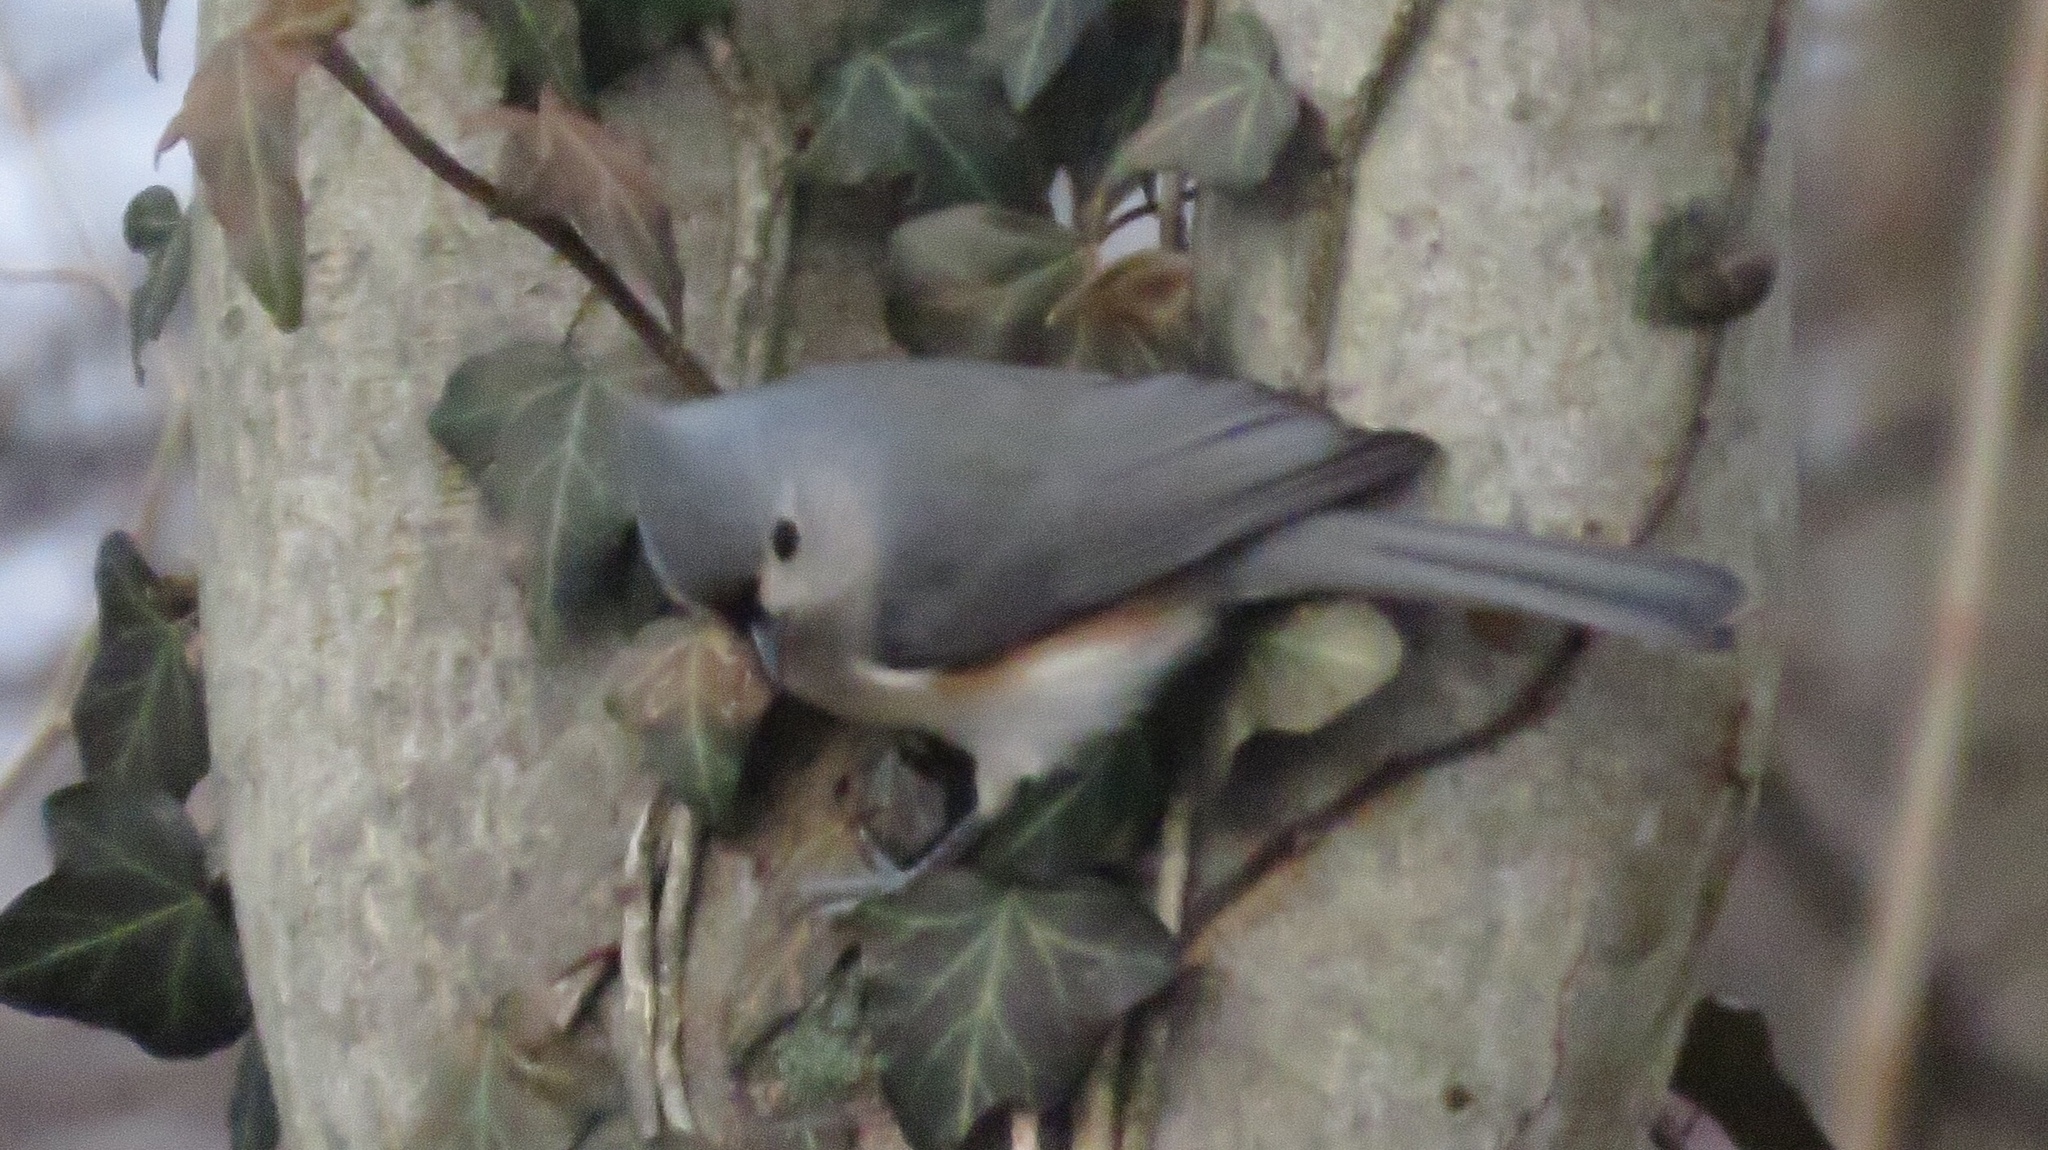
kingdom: Animalia
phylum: Chordata
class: Aves
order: Passeriformes
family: Paridae
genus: Baeolophus
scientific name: Baeolophus bicolor
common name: Tufted titmouse
